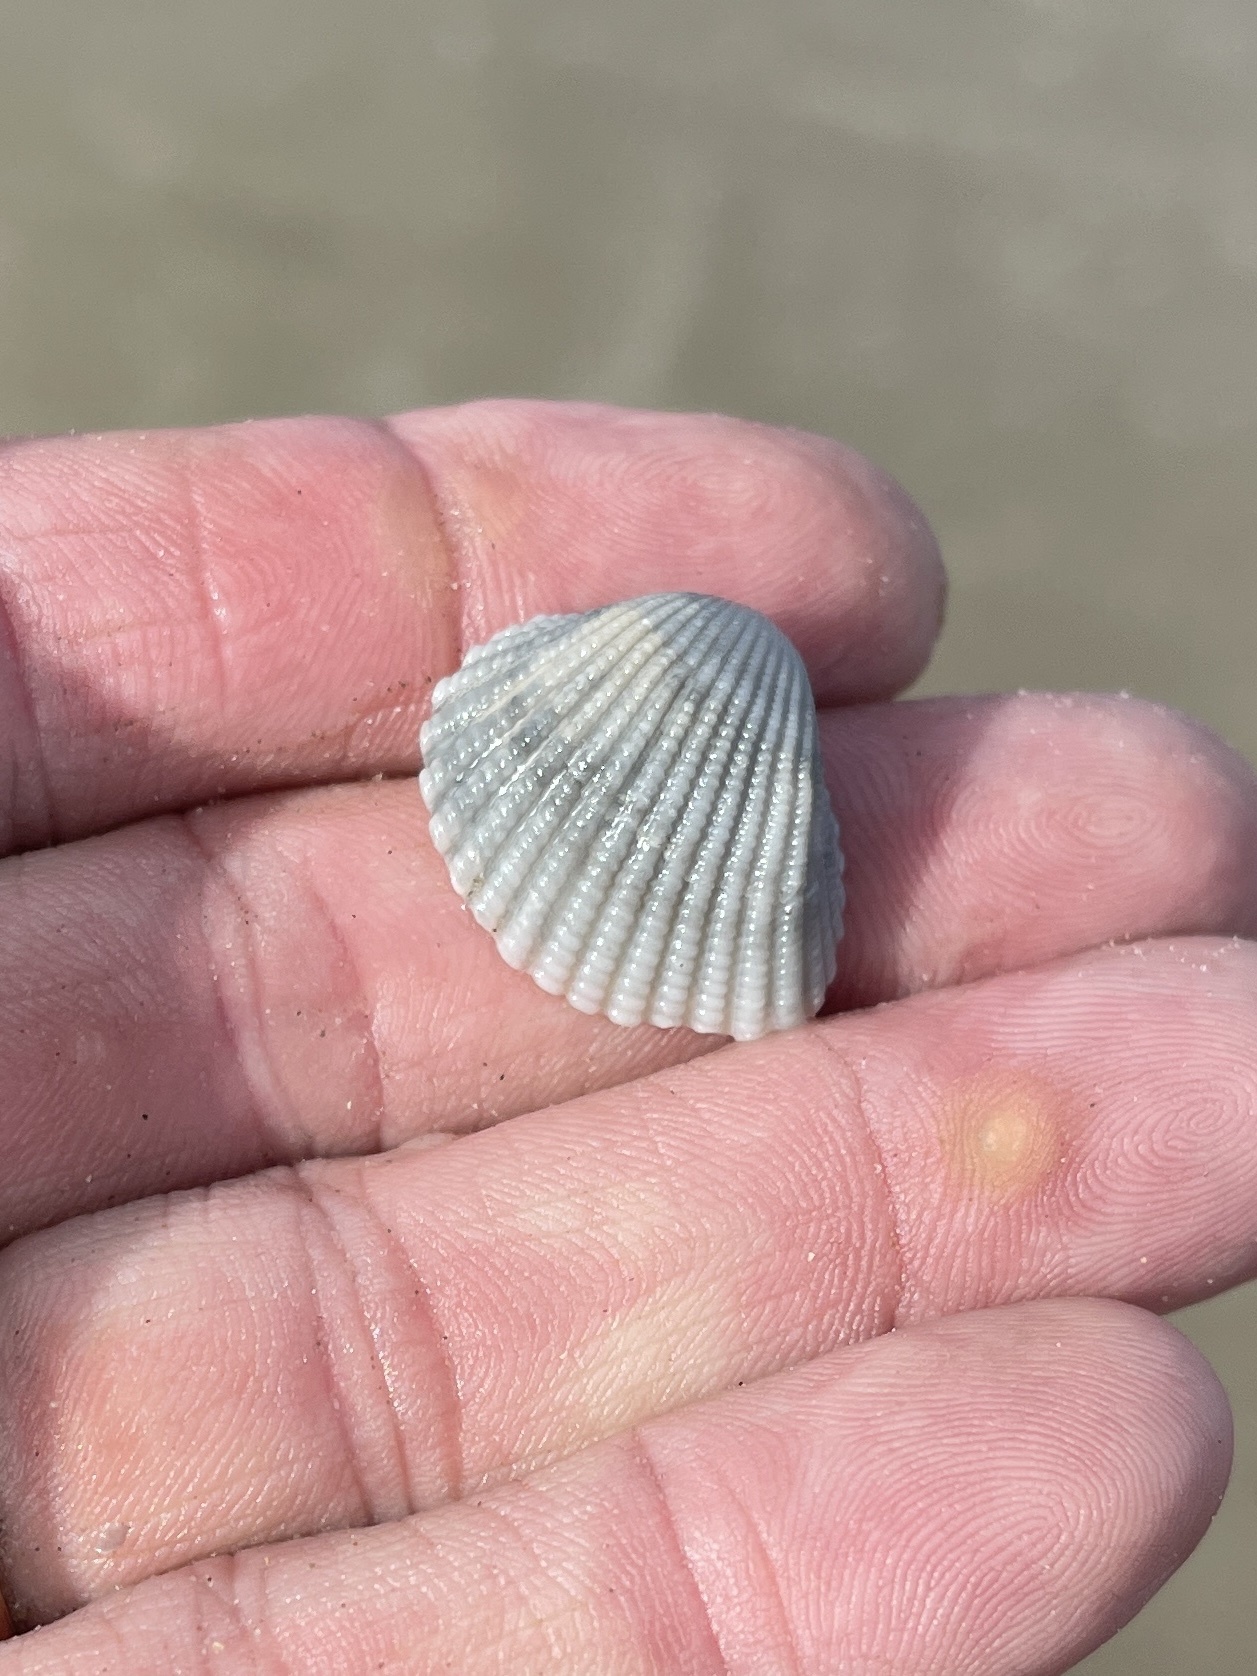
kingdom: Animalia
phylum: Mollusca
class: Bivalvia
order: Arcida
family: Arcidae
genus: Anadara
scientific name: Anadara brasiliana
